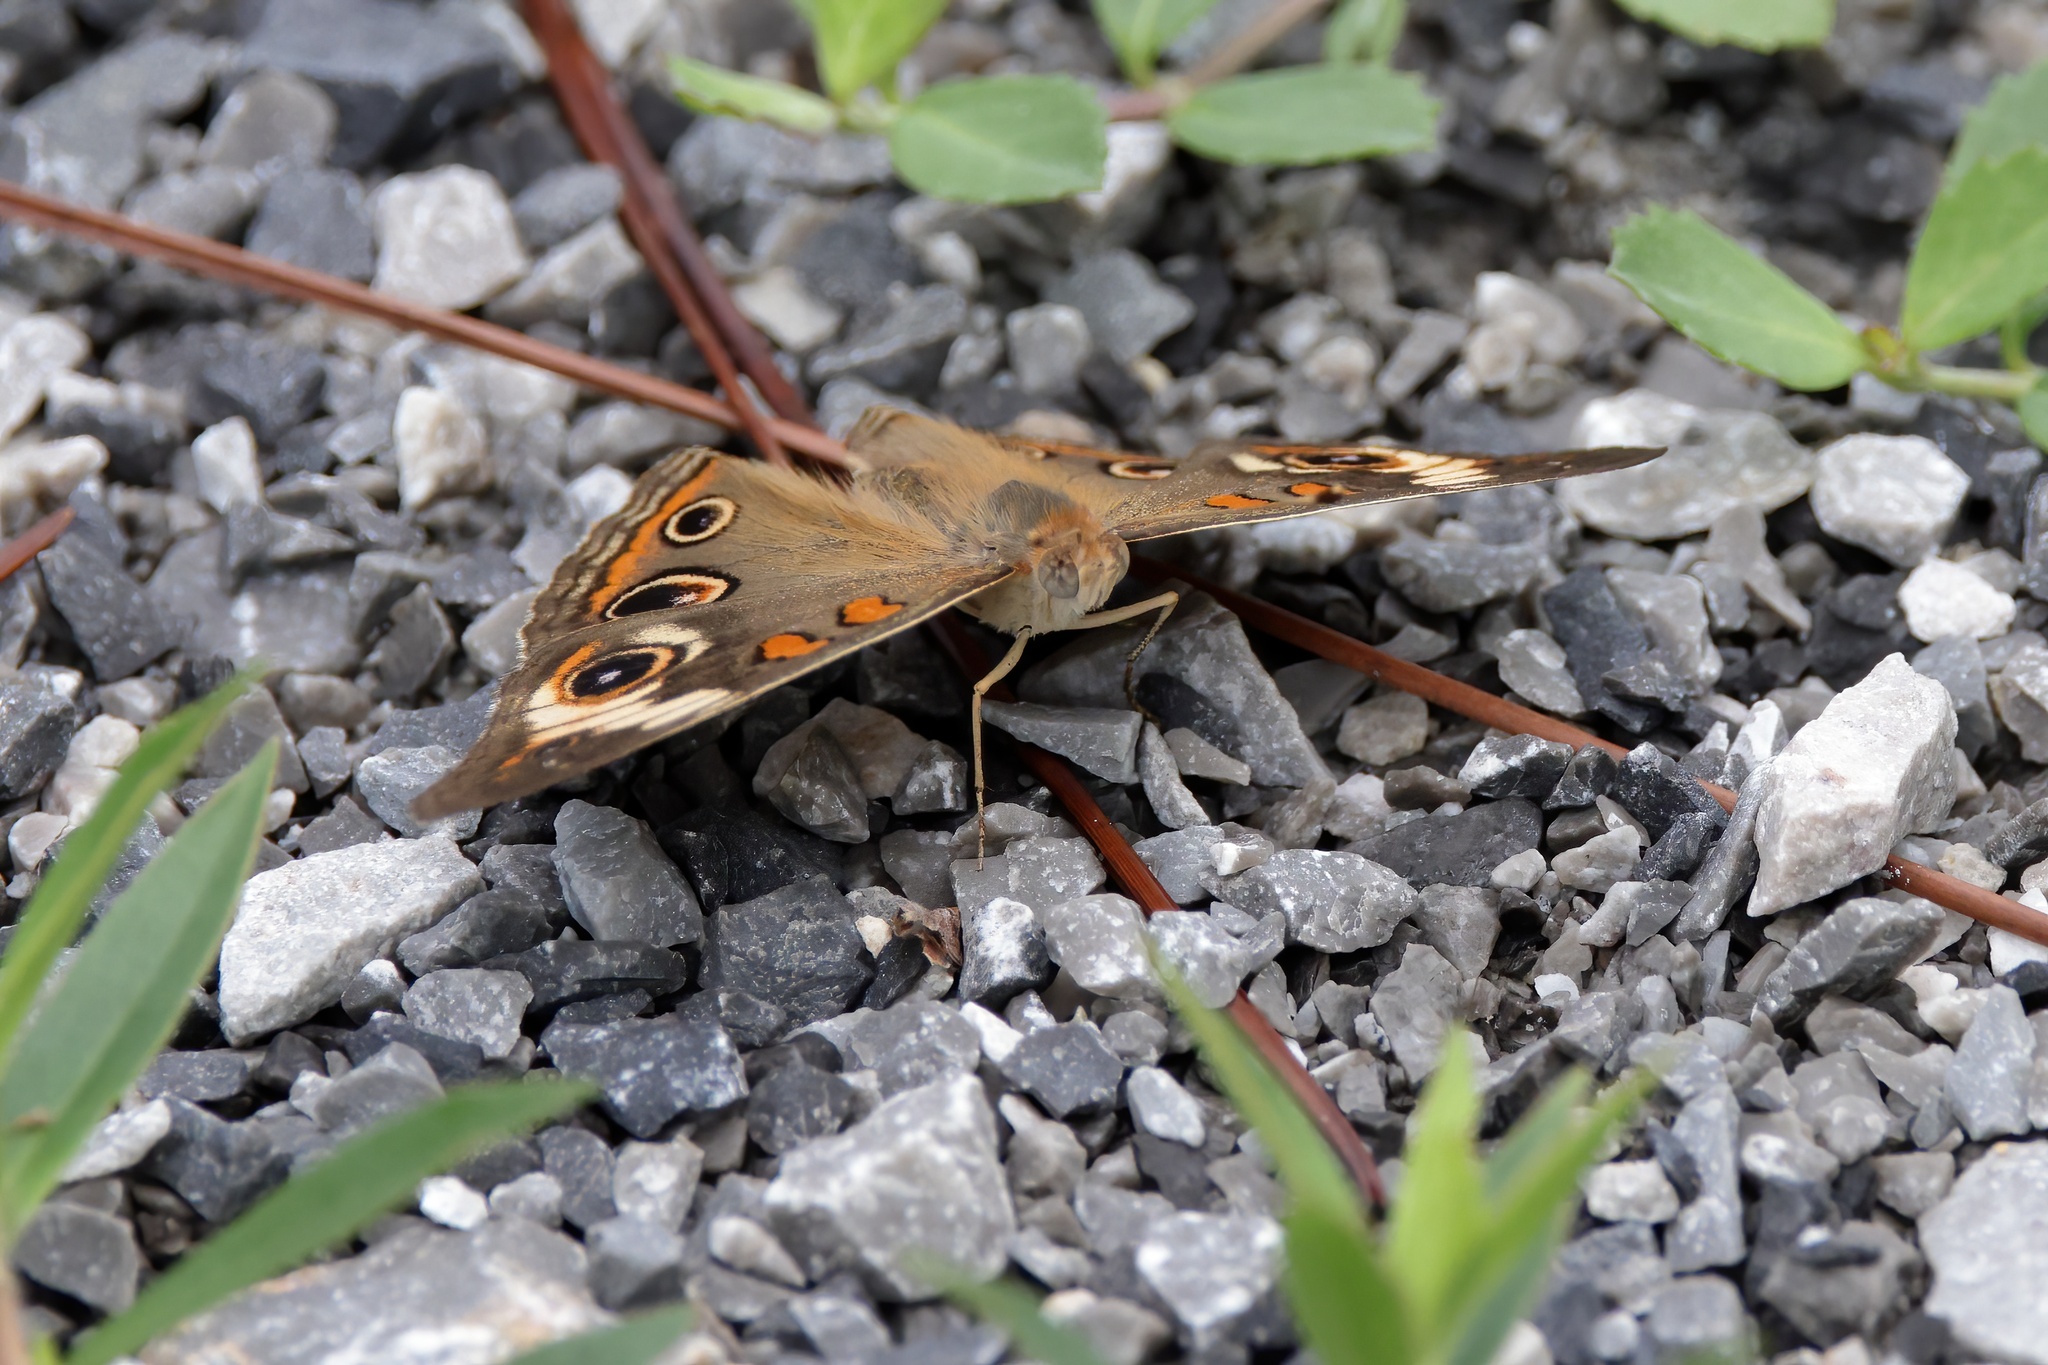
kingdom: Animalia
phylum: Arthropoda
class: Insecta
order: Lepidoptera
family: Nymphalidae
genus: Junonia
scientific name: Junonia coenia
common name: Common buckeye
